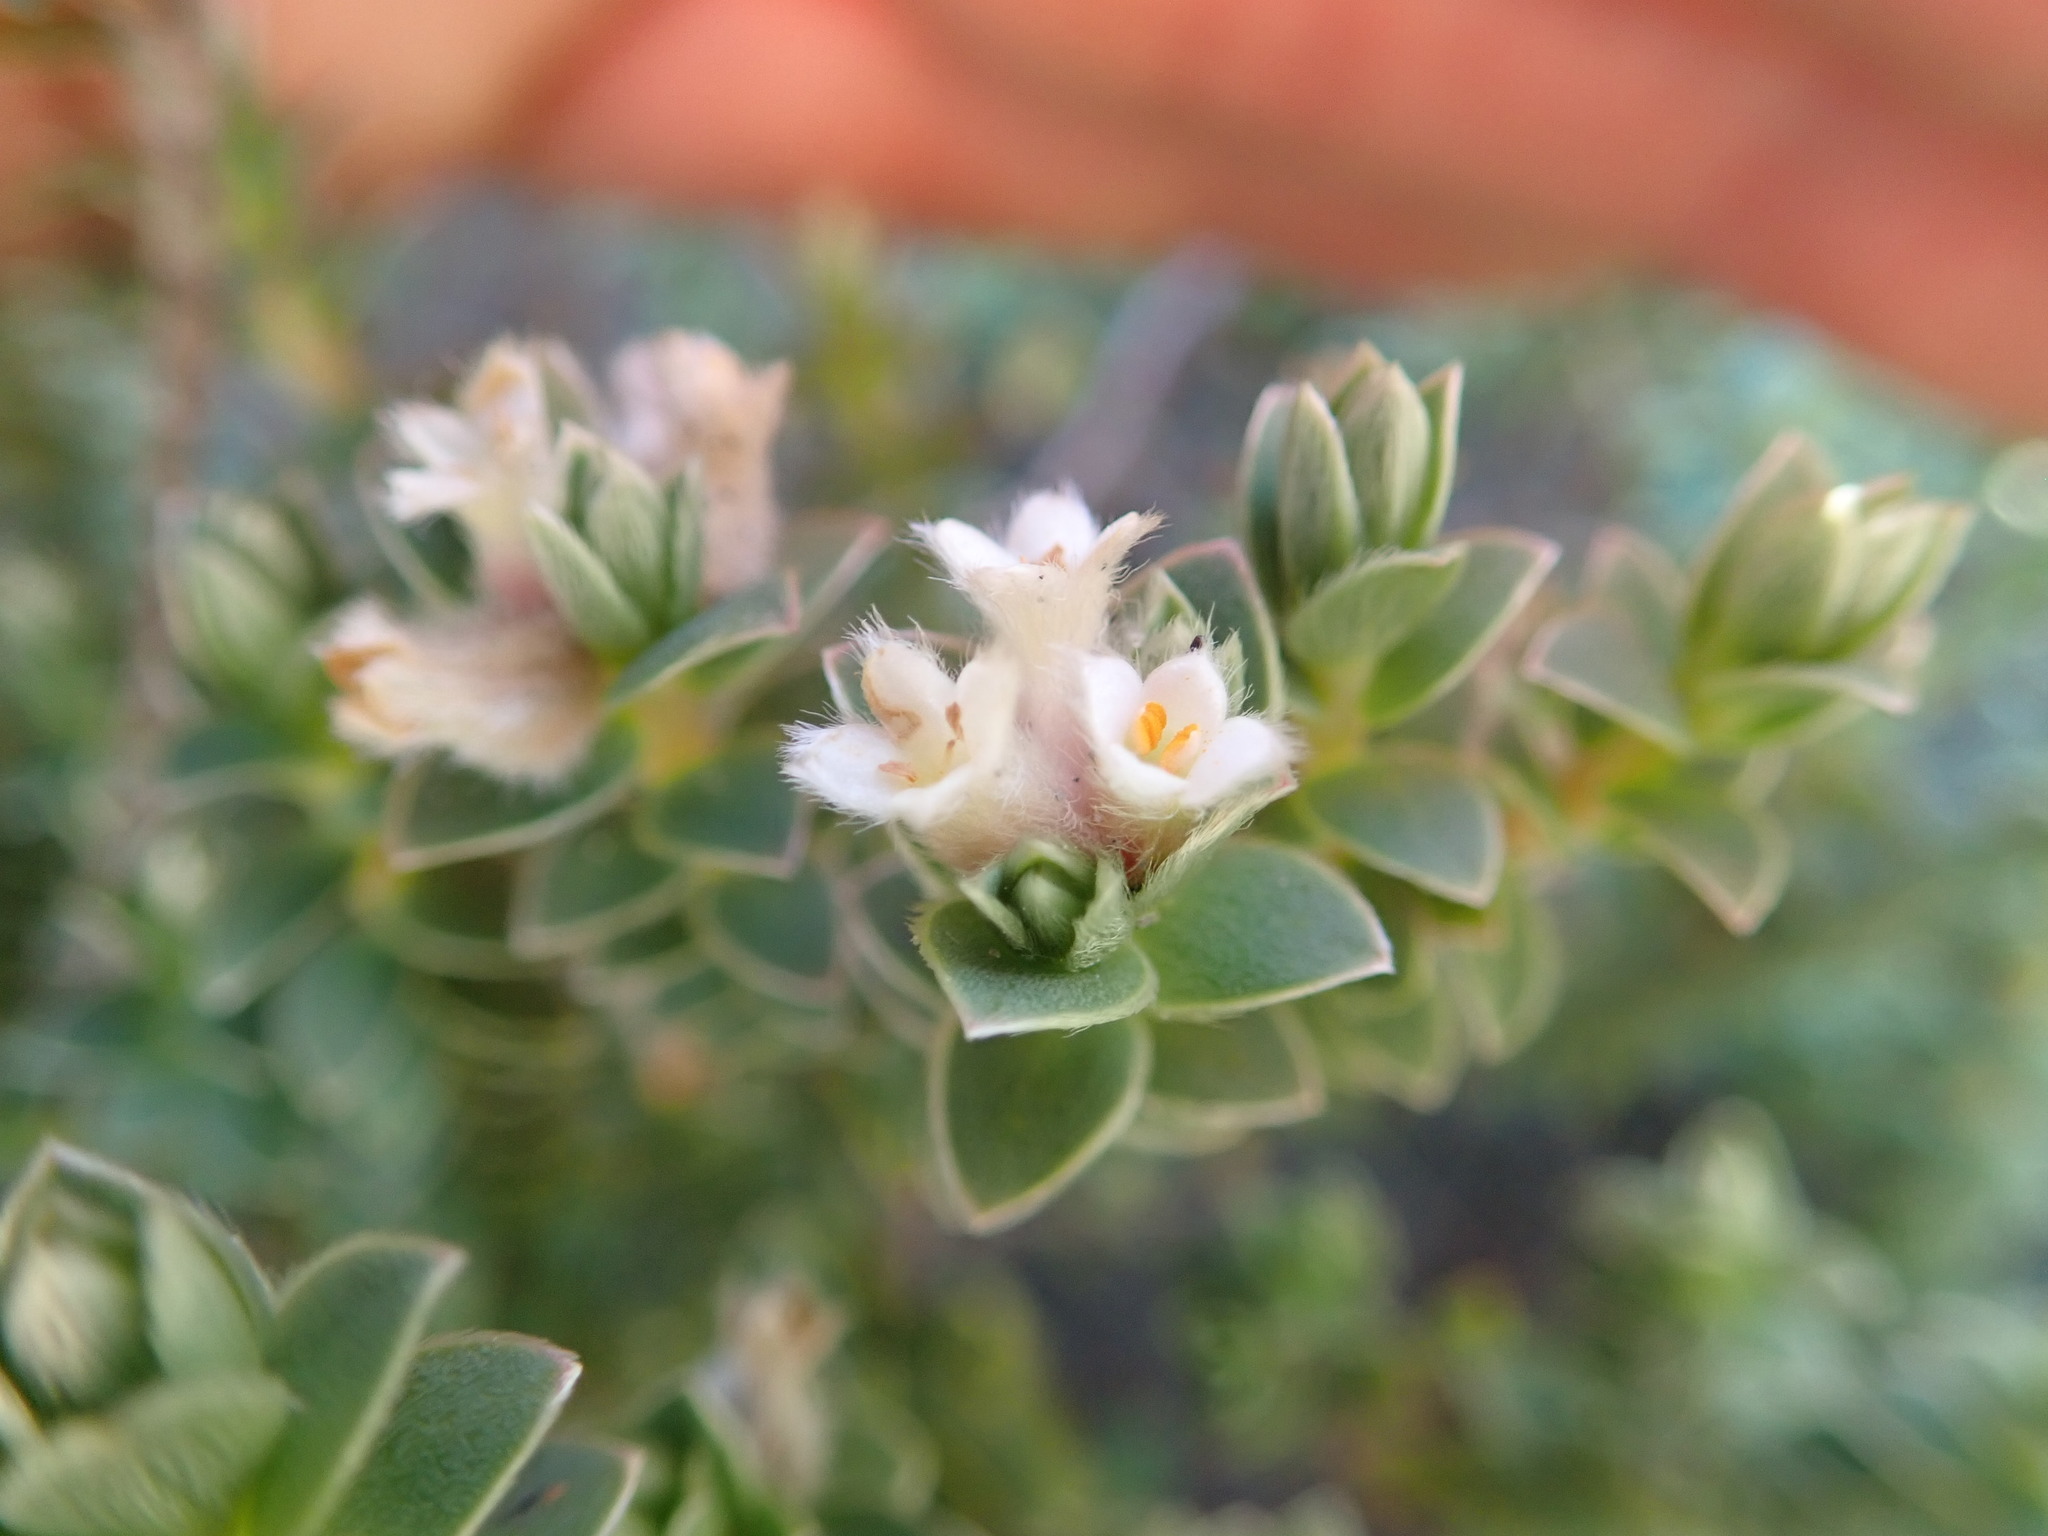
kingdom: Plantae
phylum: Tracheophyta
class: Magnoliopsida
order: Malvales
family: Thymelaeaceae
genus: Pimelea
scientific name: Pimelea villosa
